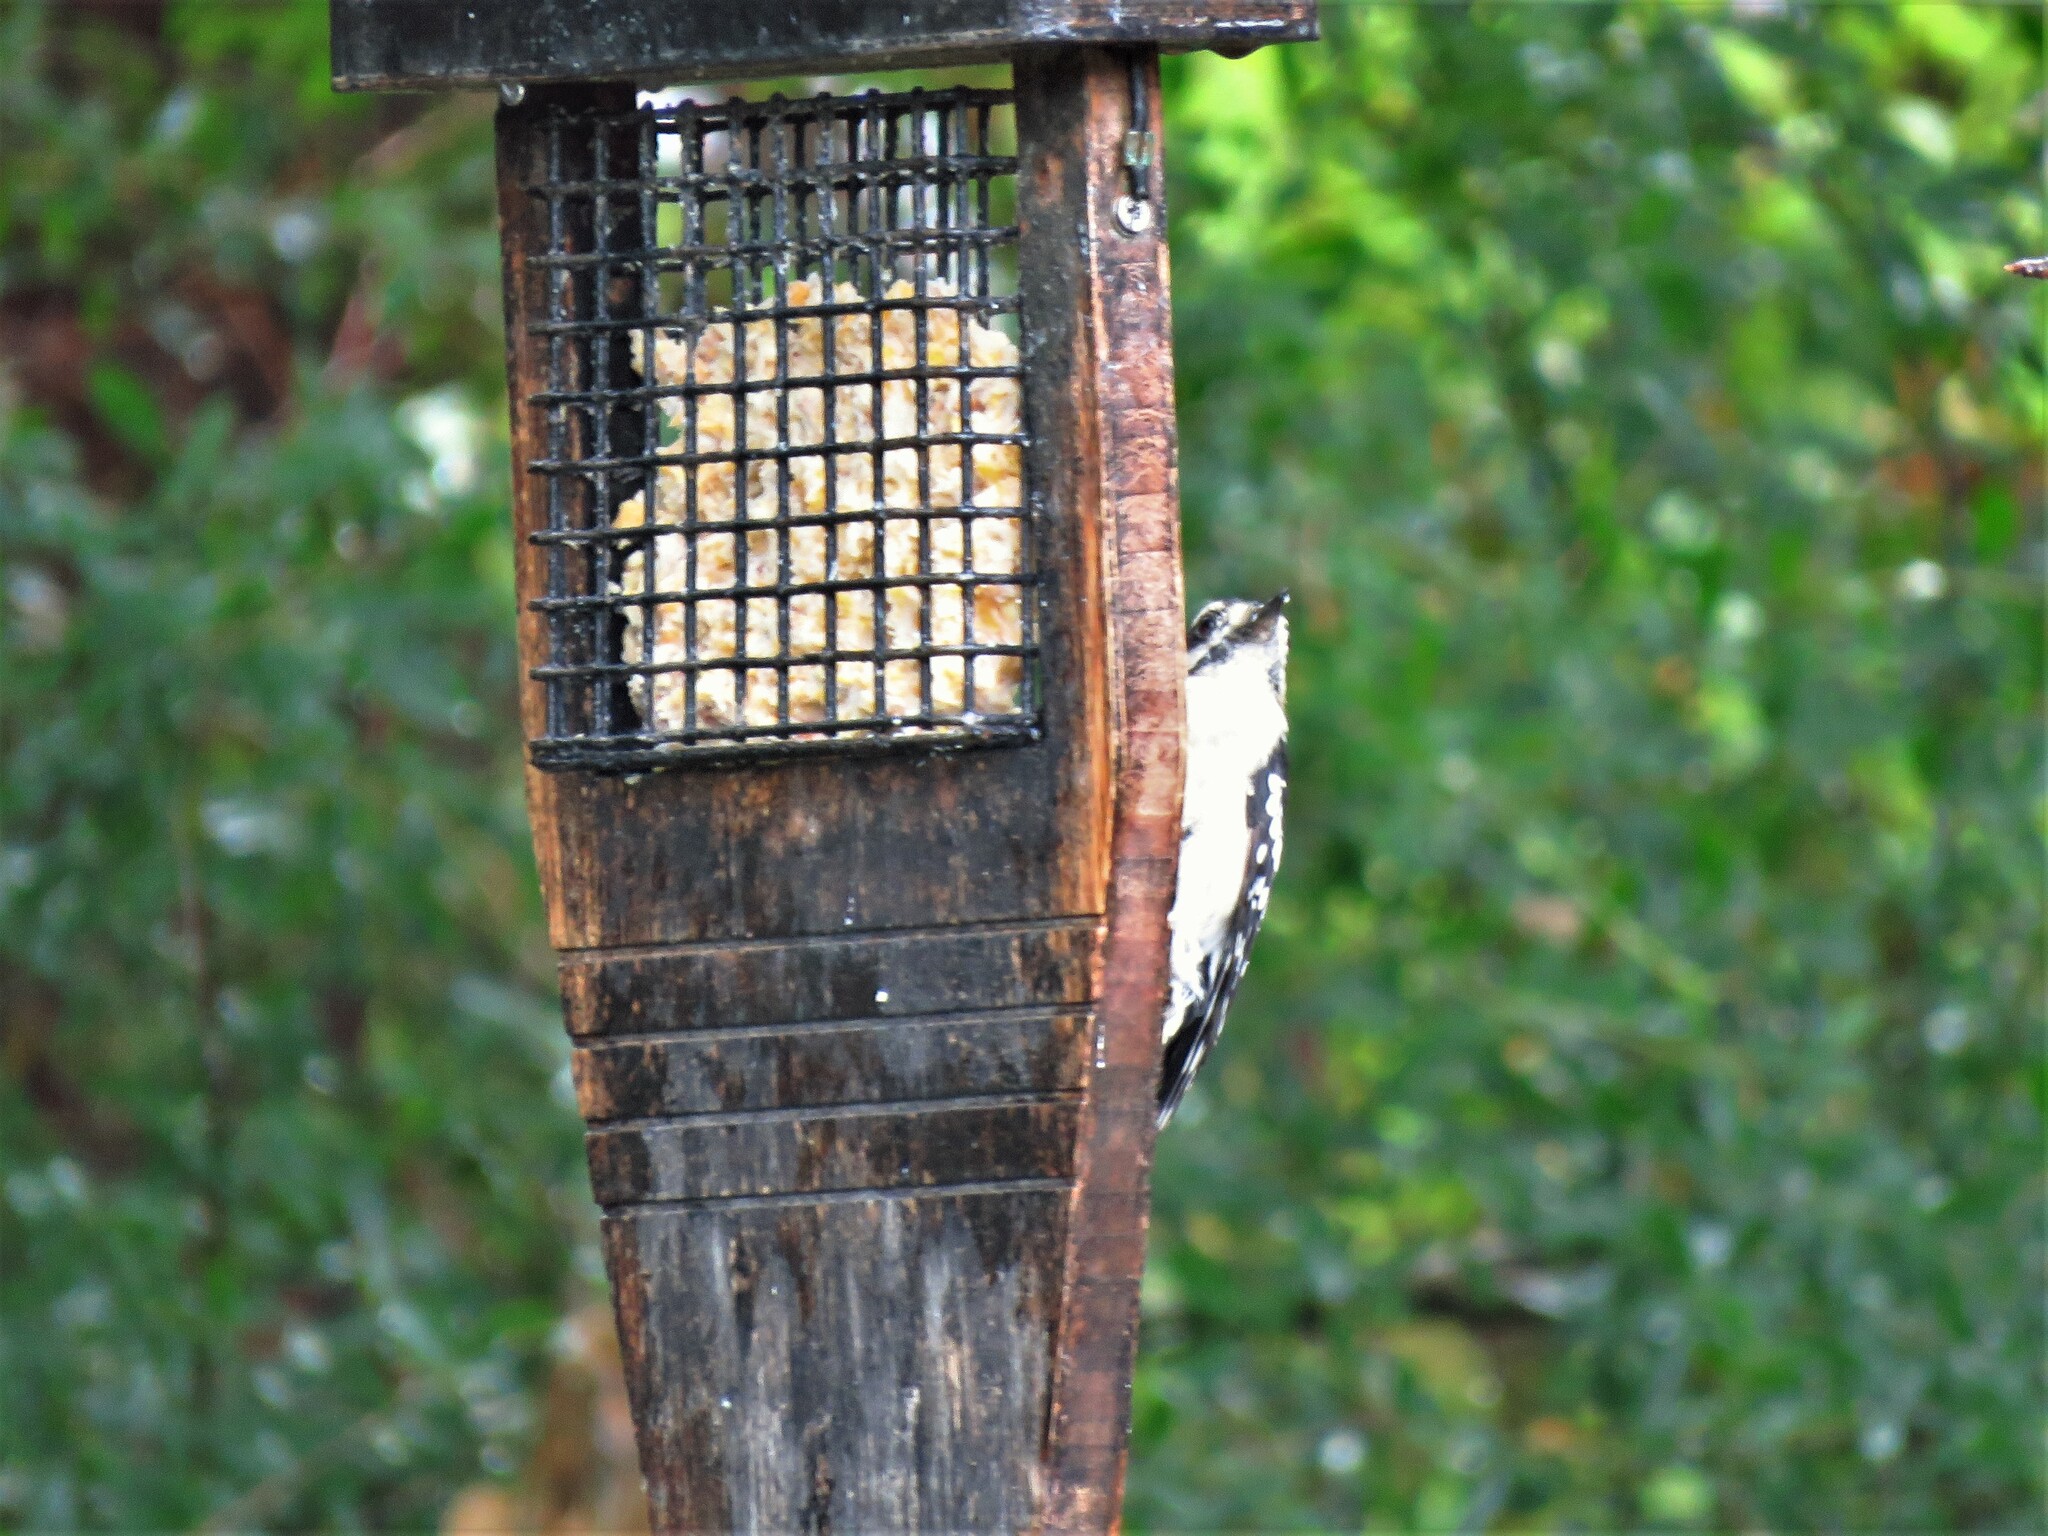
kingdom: Animalia
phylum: Chordata
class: Aves
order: Piciformes
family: Picidae
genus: Dryobates
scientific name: Dryobates pubescens
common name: Downy woodpecker
